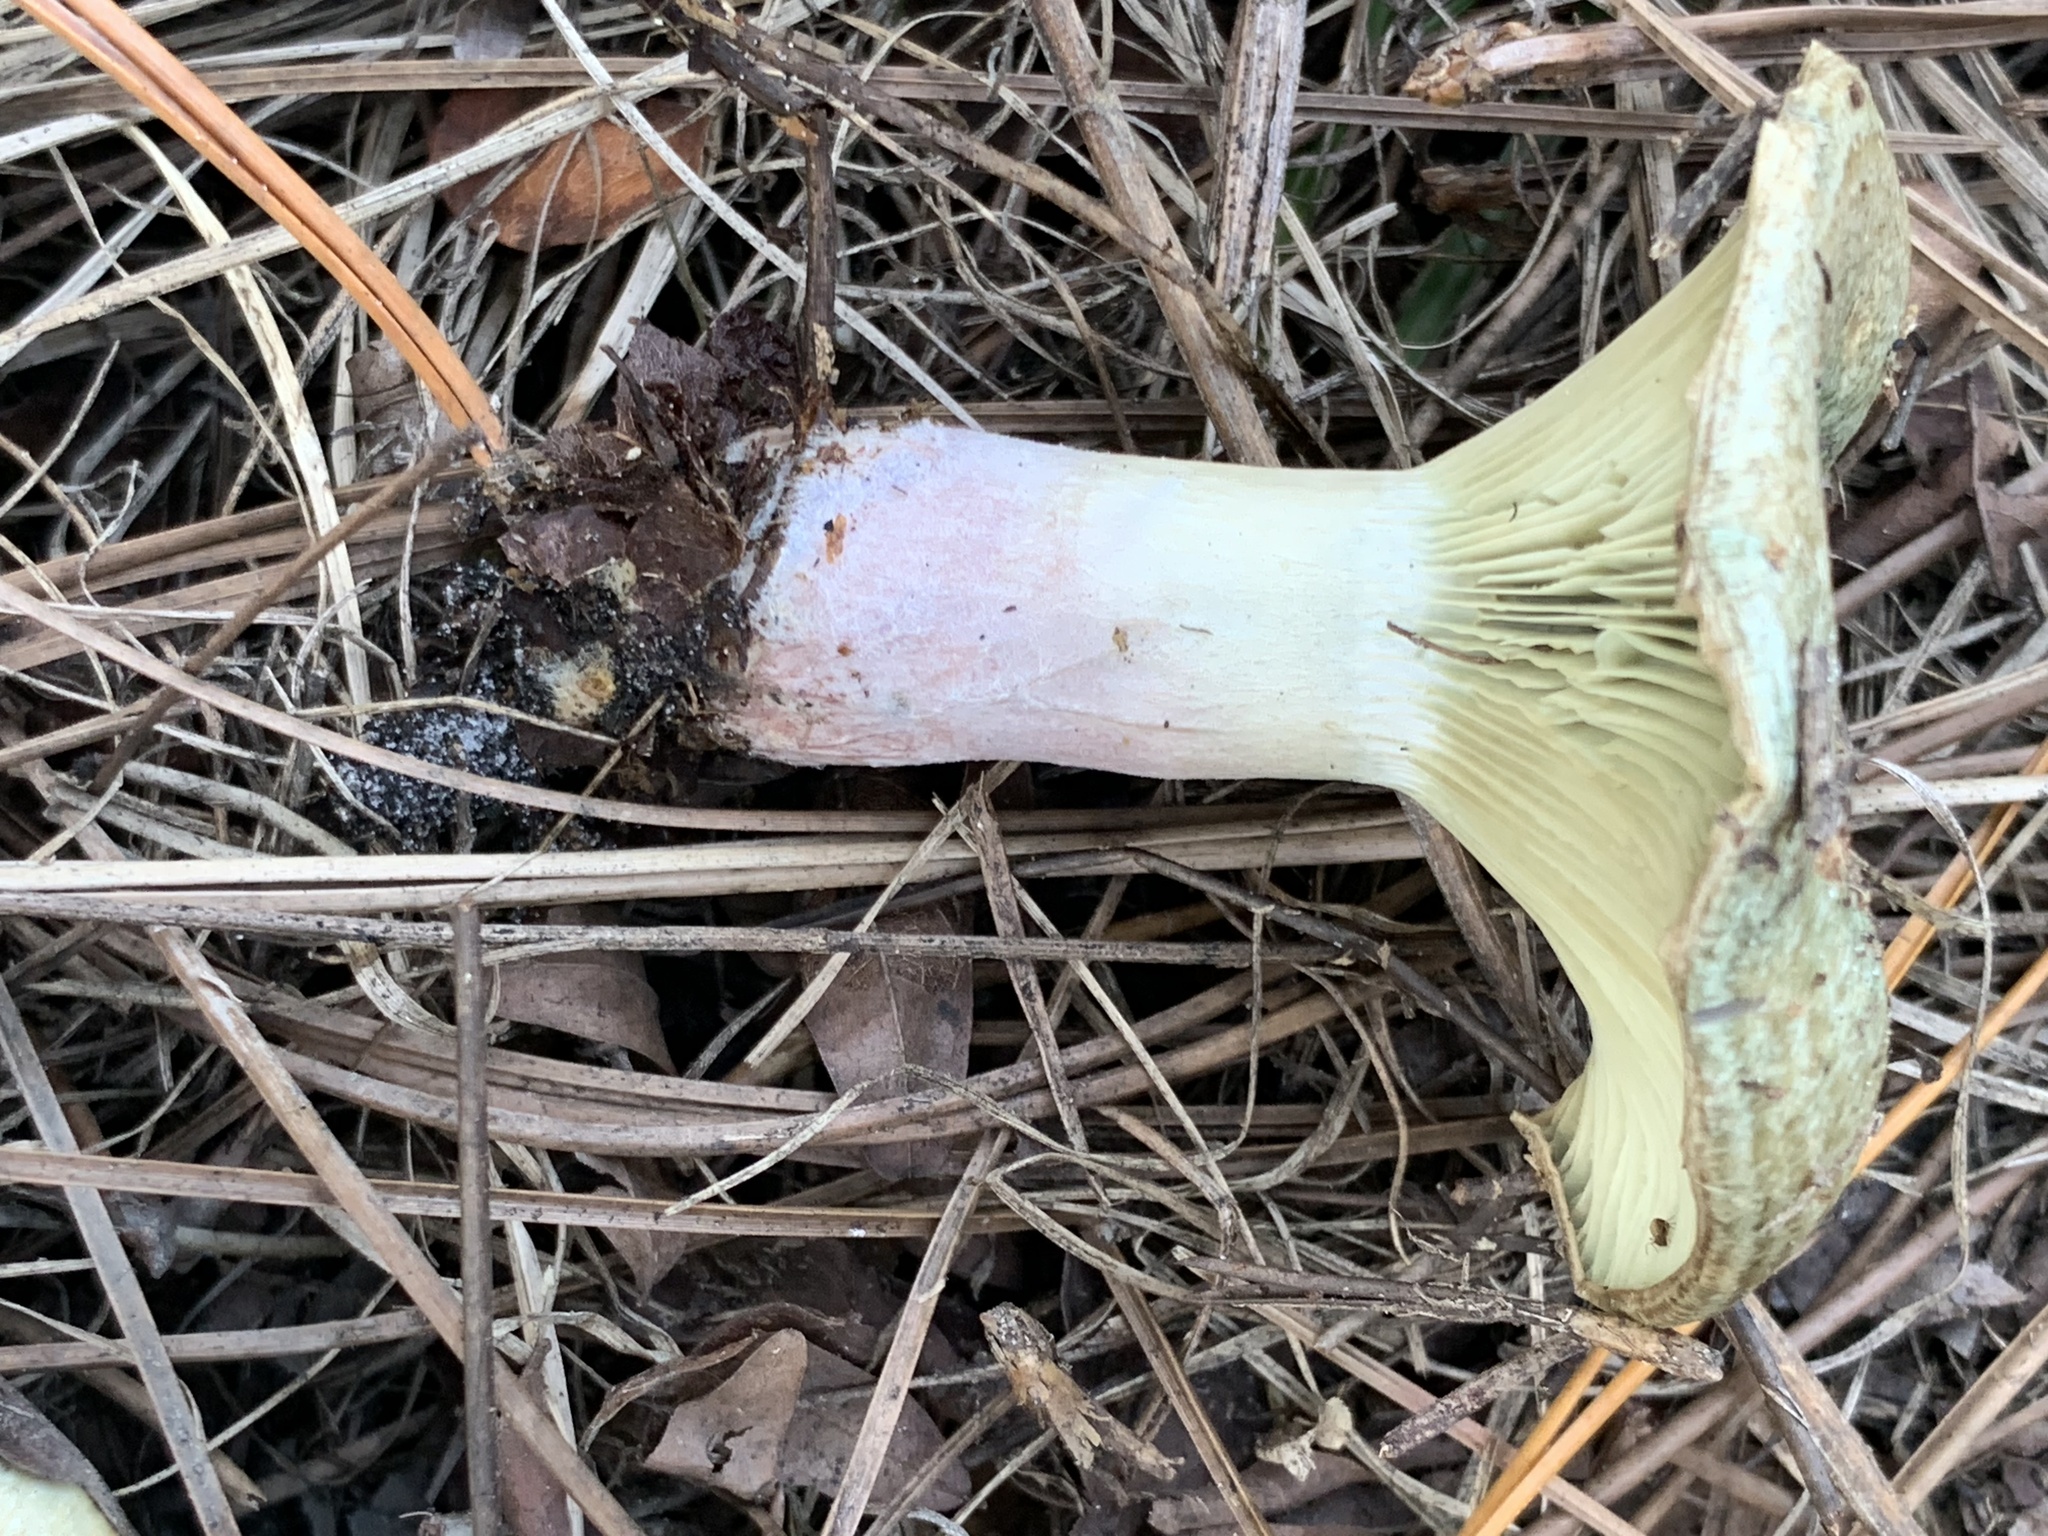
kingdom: Fungi
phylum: Basidiomycota
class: Agaricomycetes
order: Russulales
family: Russulaceae
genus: Lactarius
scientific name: Lactarius paradoxus
